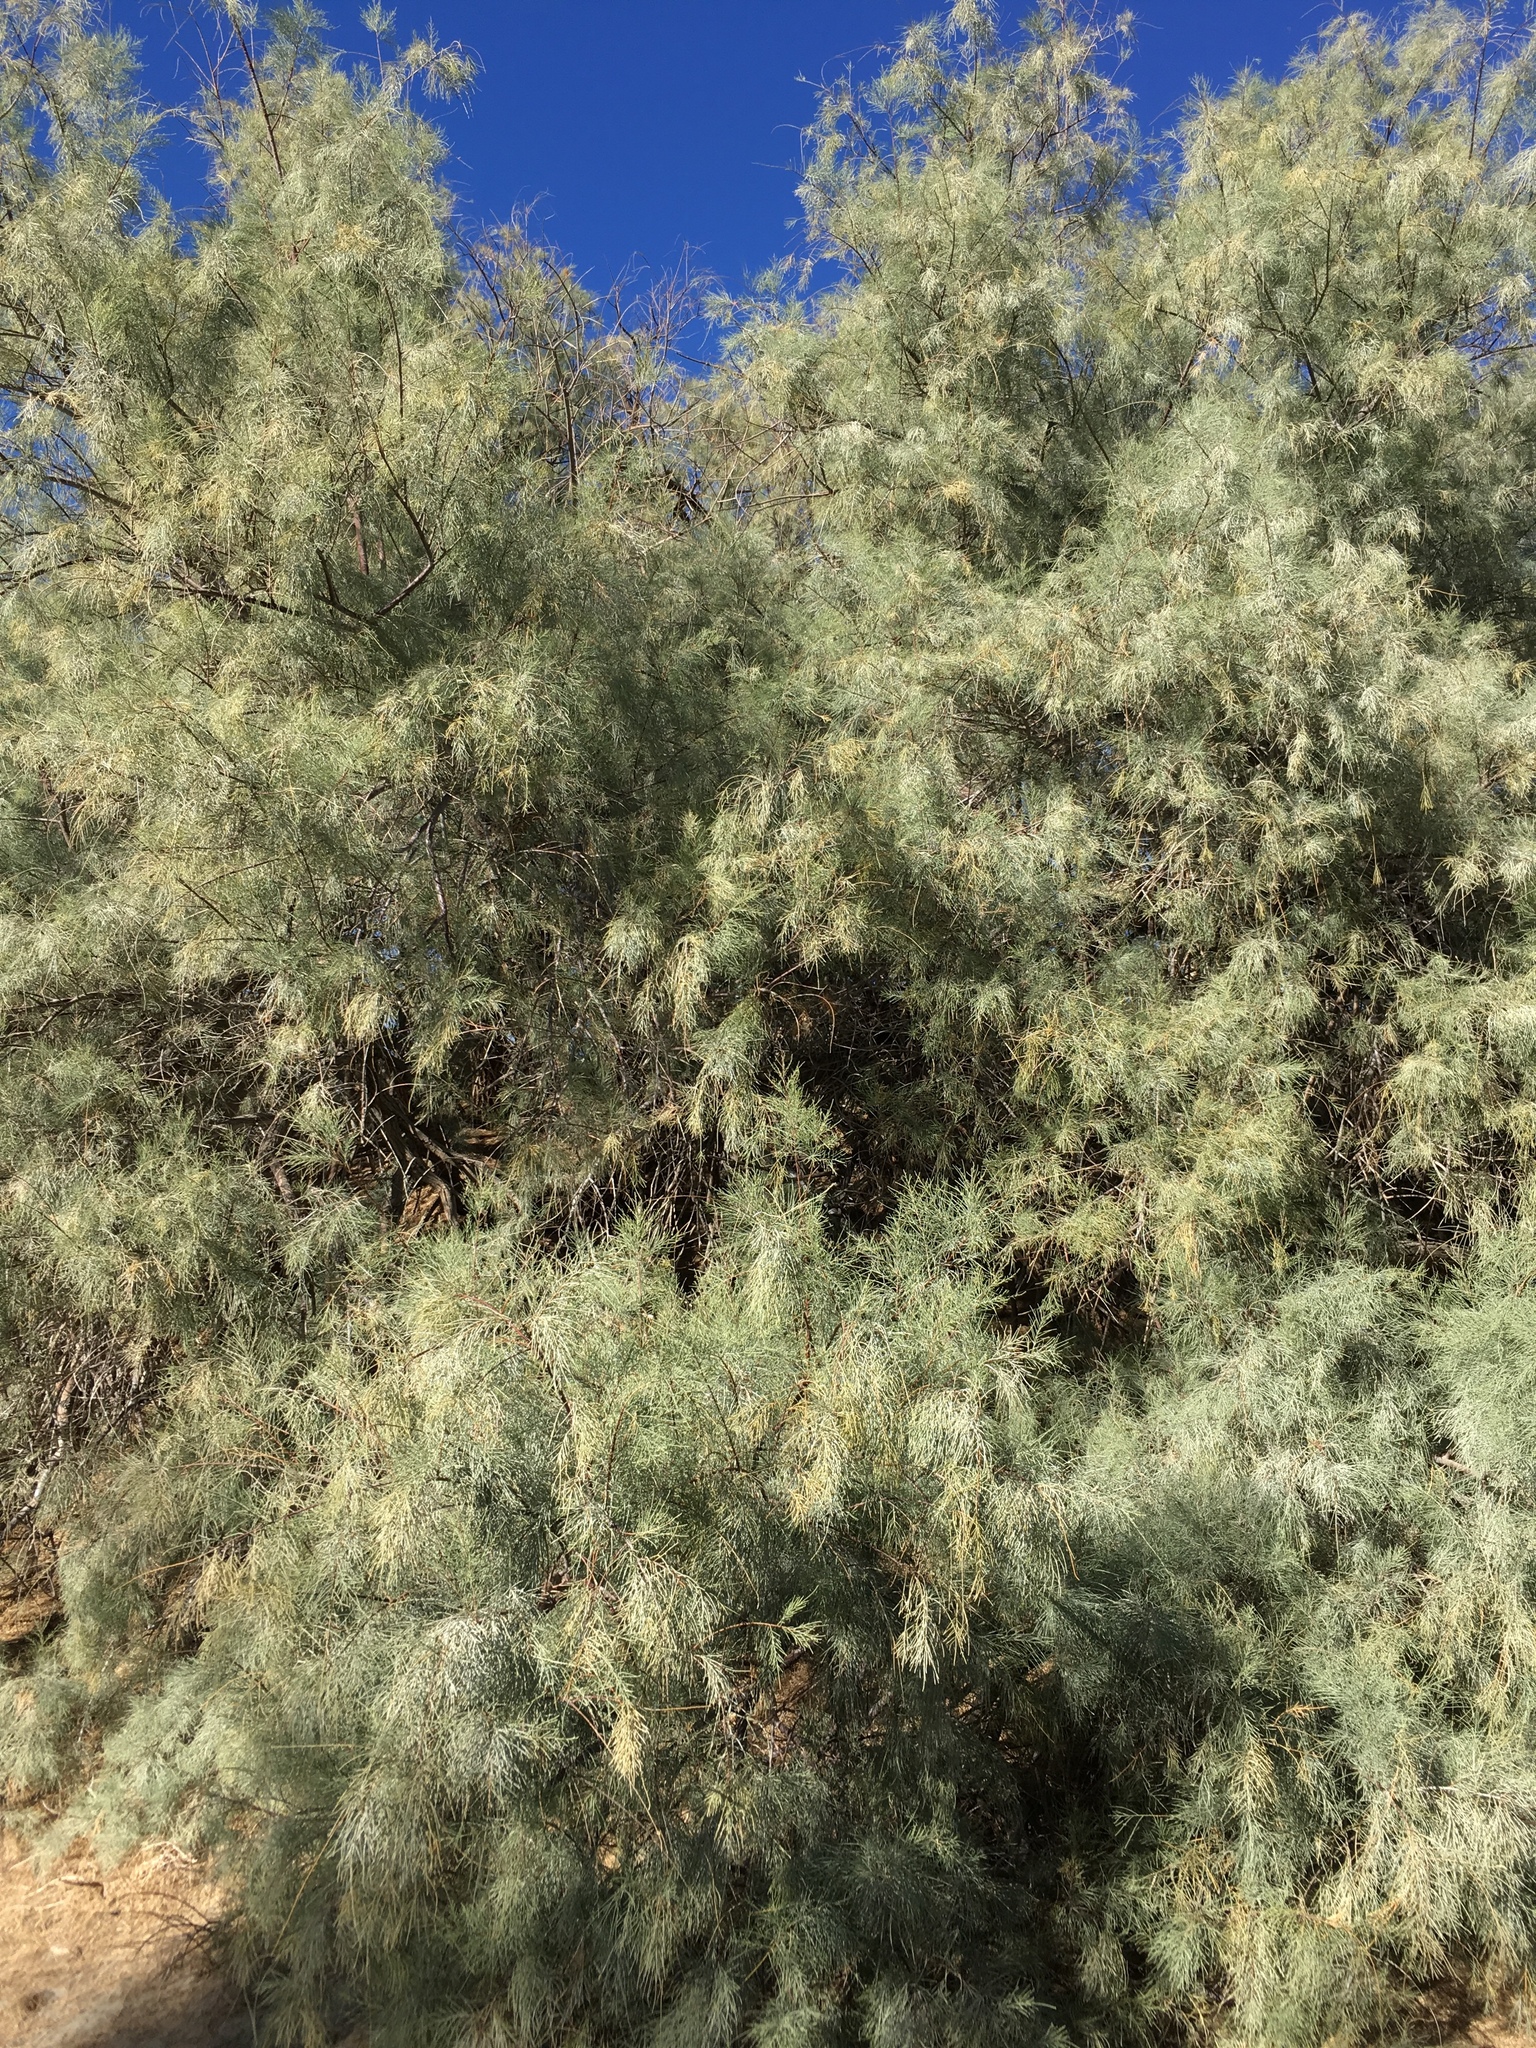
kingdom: Plantae
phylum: Tracheophyta
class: Magnoliopsida
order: Caryophyllales
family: Tamaricaceae
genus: Tamarix
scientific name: Tamarix aphylla
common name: Athel tamarisk
